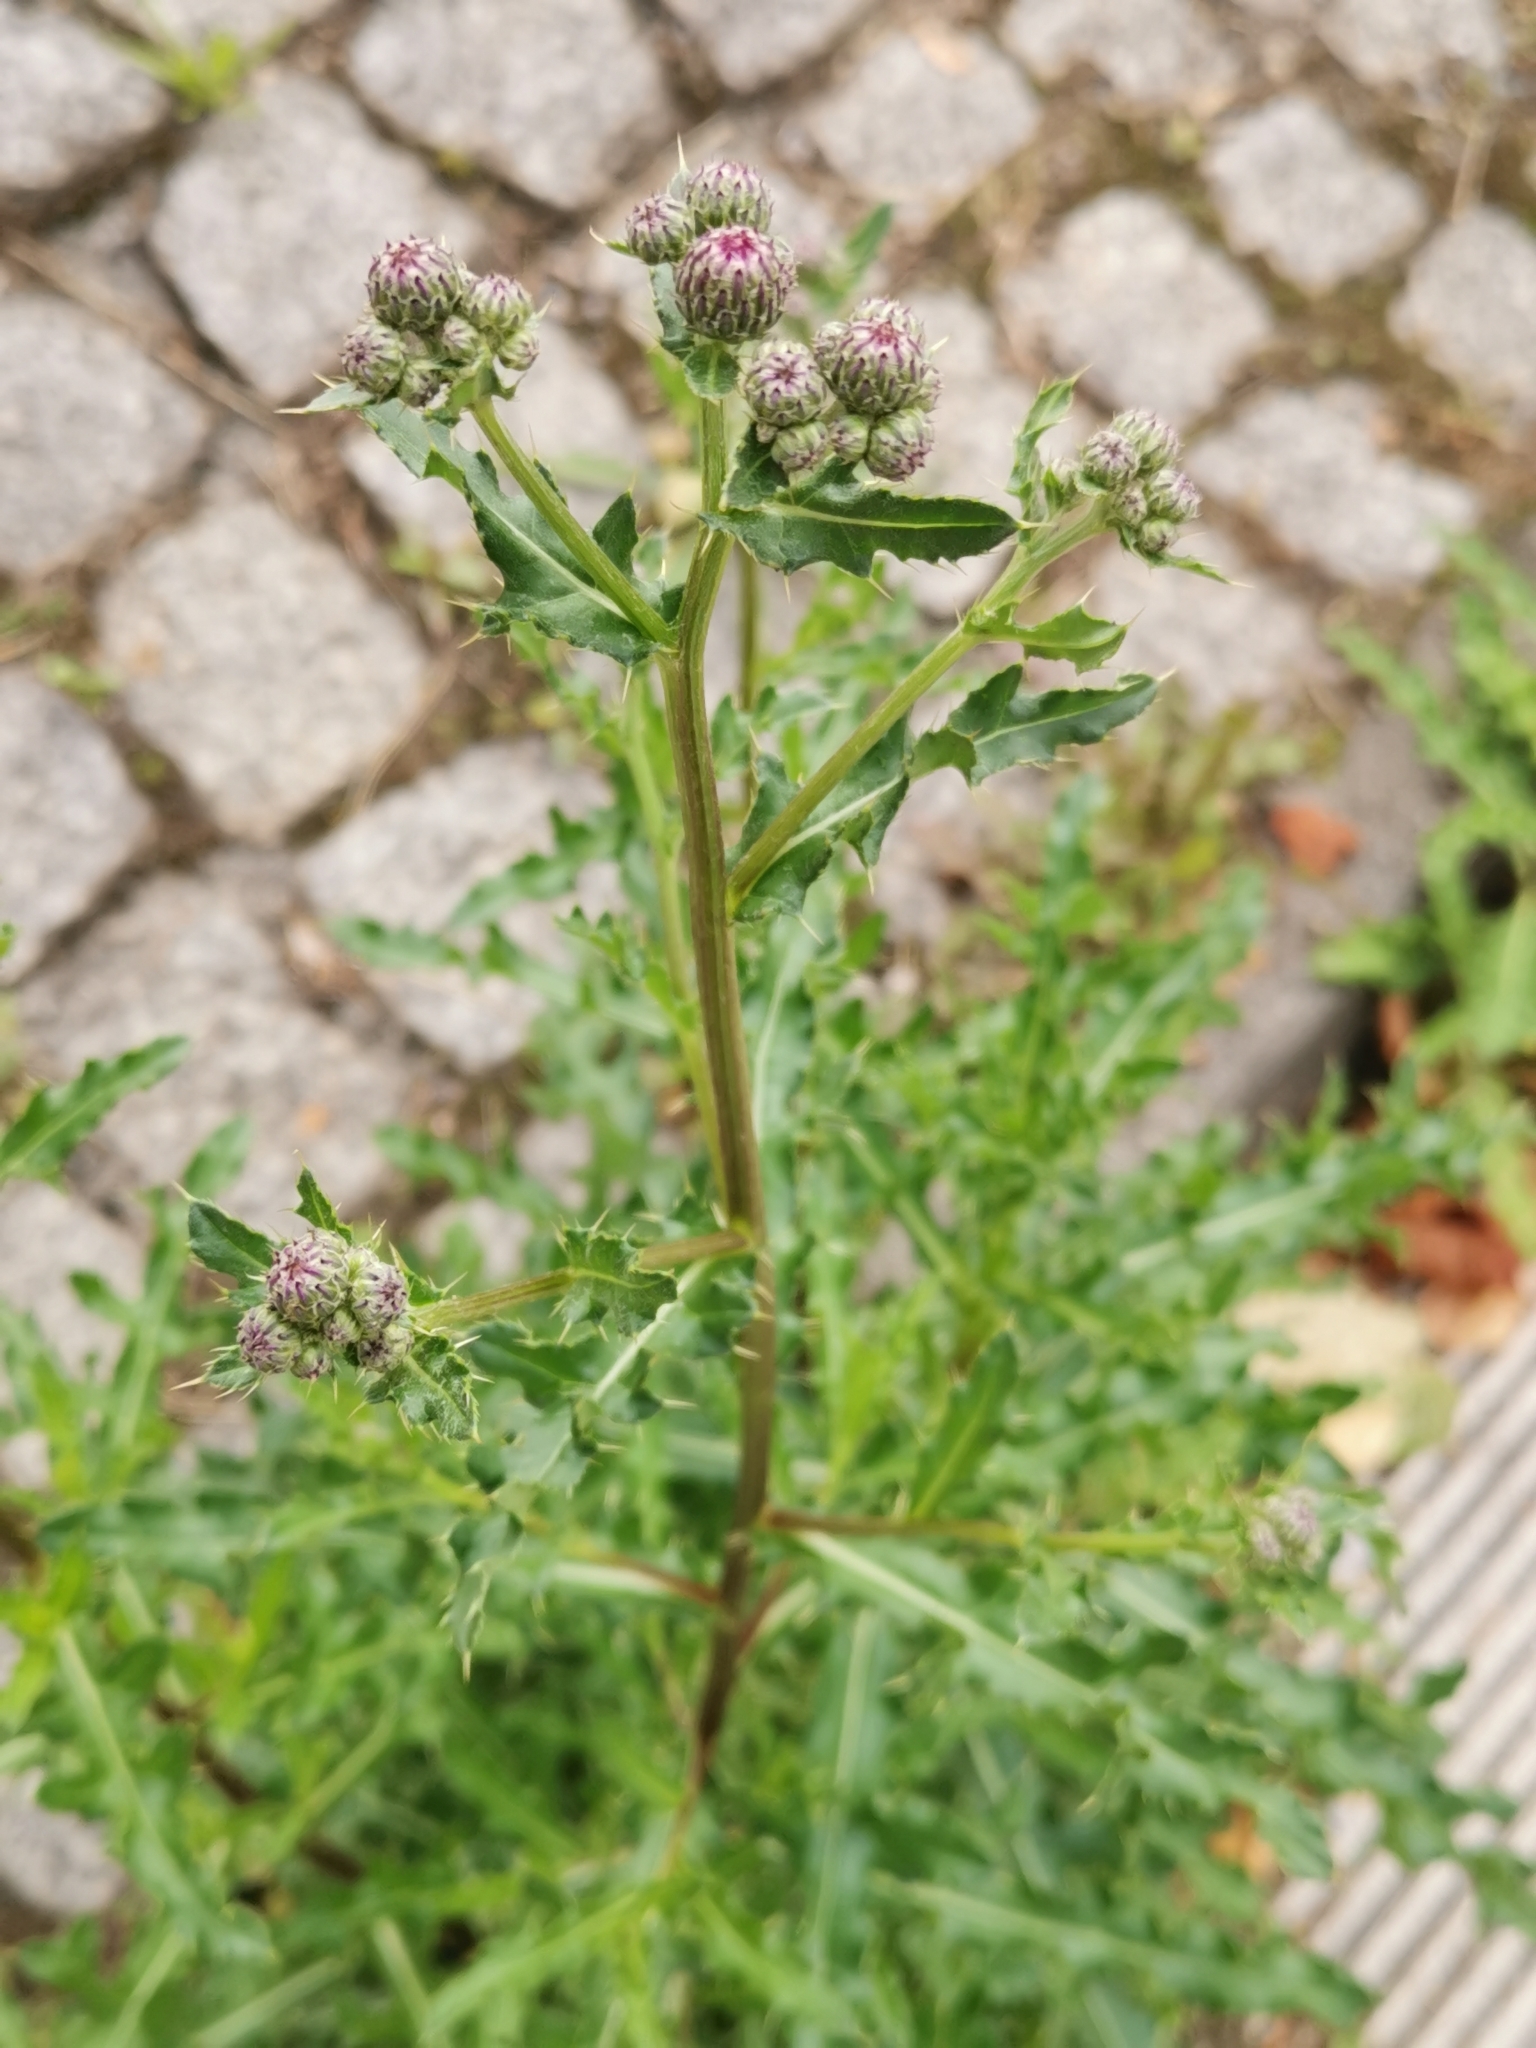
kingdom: Plantae
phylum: Tracheophyta
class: Magnoliopsida
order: Asterales
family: Asteraceae
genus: Cirsium
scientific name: Cirsium arvense
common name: Creeping thistle
